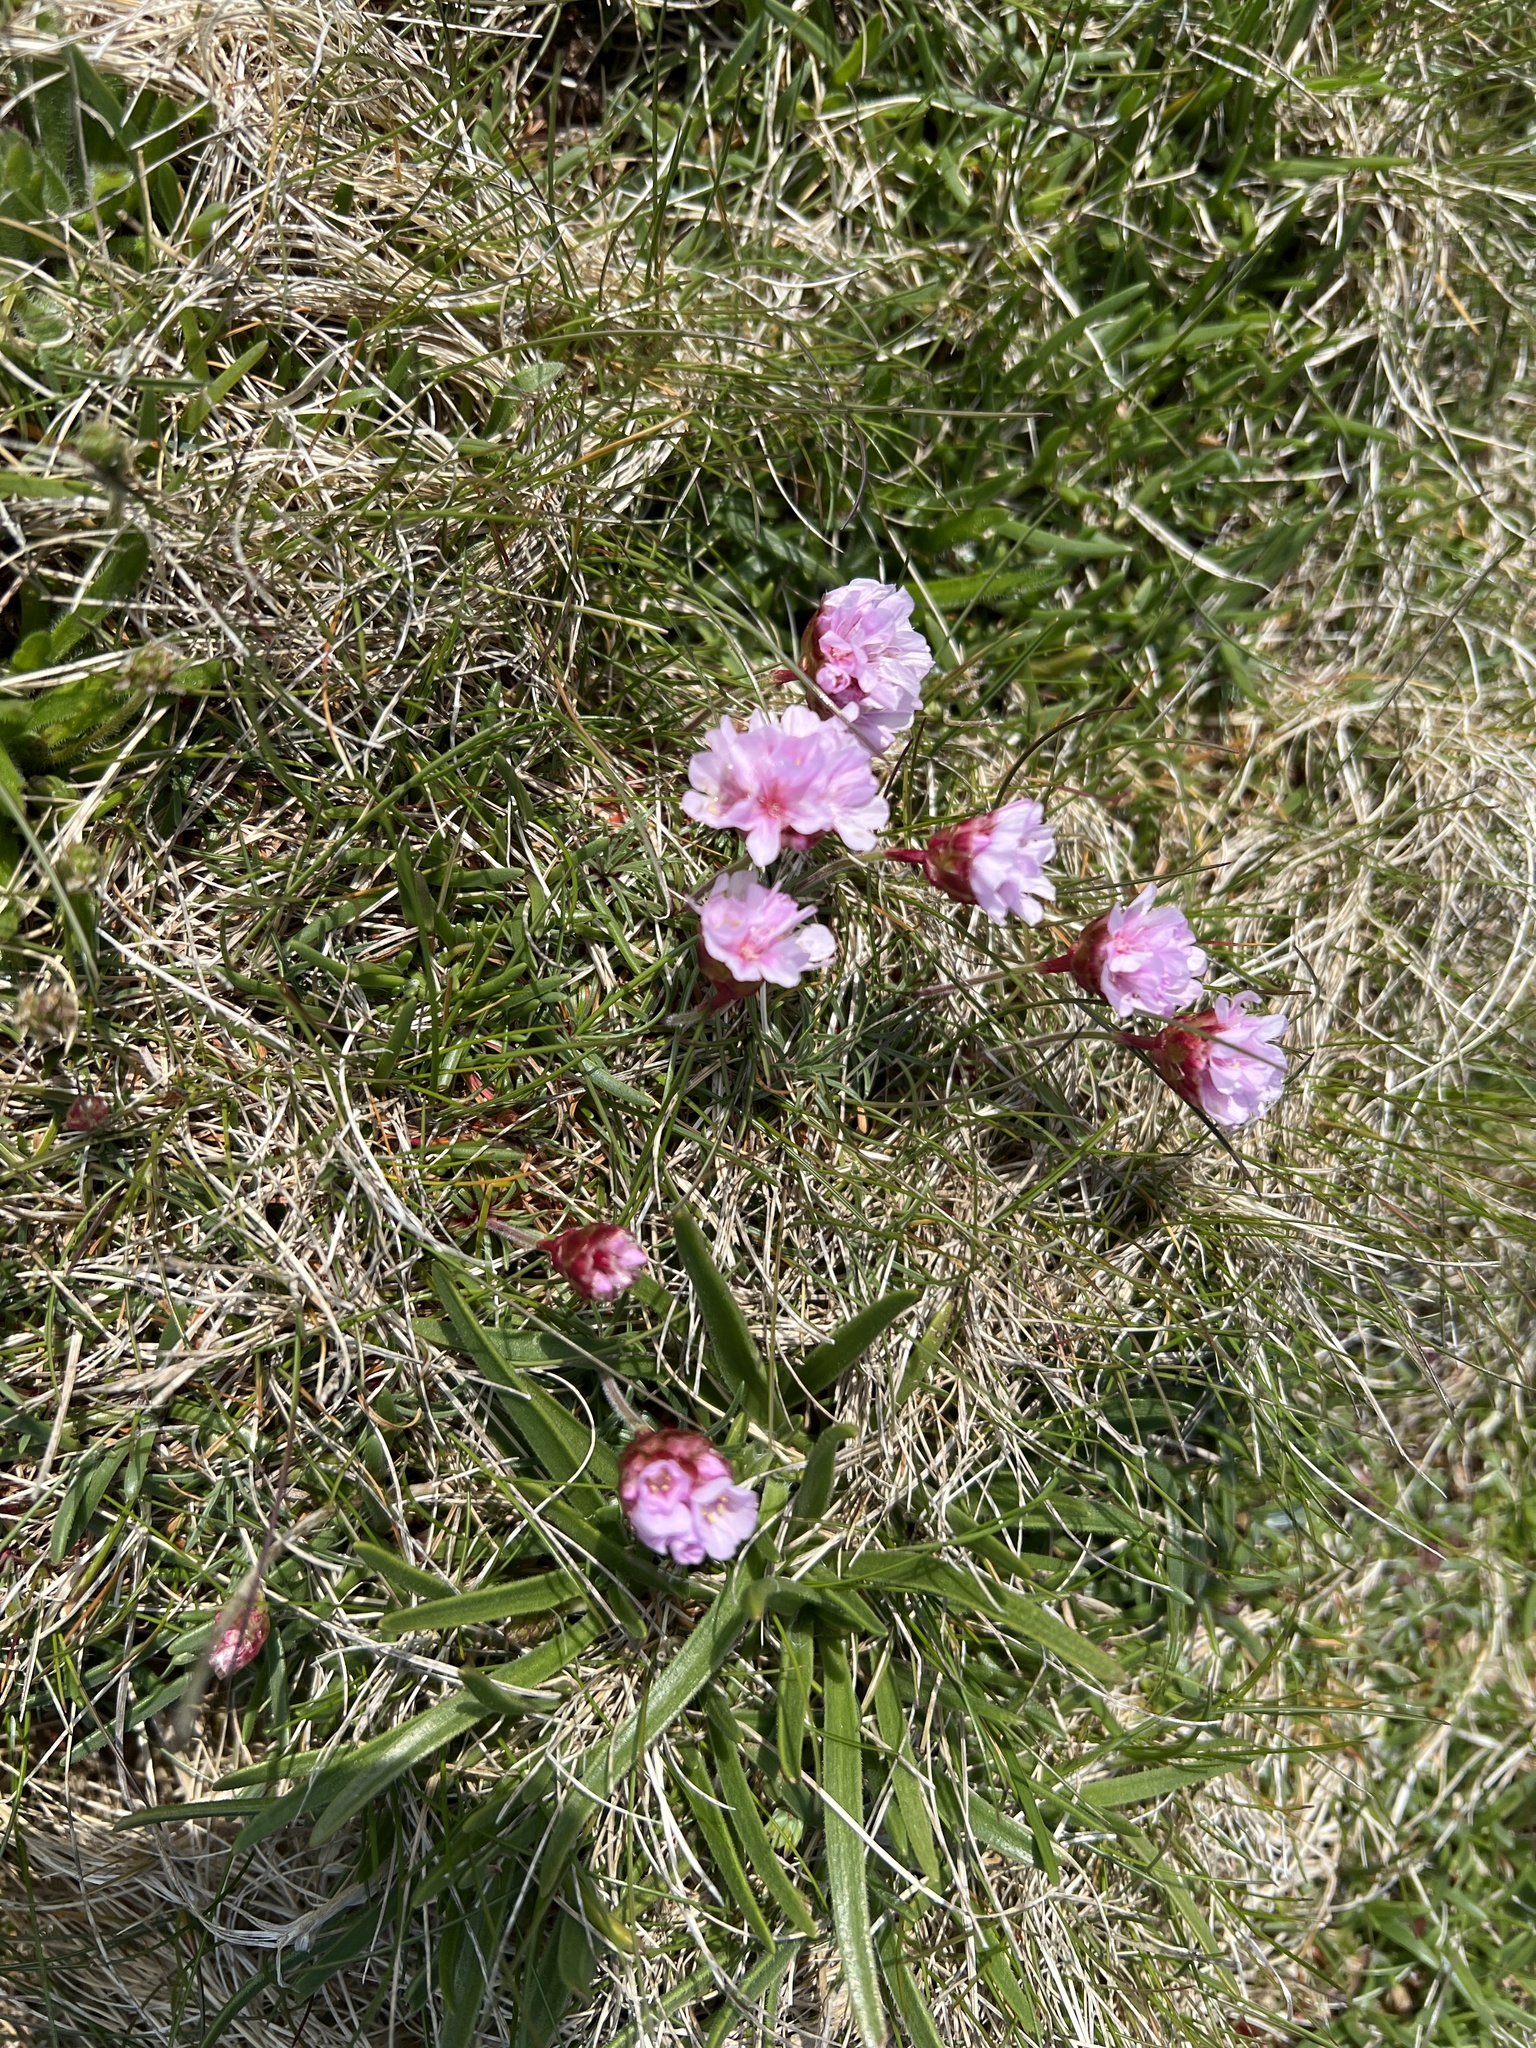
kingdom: Plantae
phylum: Tracheophyta
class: Magnoliopsida
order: Caryophyllales
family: Plumbaginaceae
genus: Armeria
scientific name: Armeria maritima
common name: Thrift
